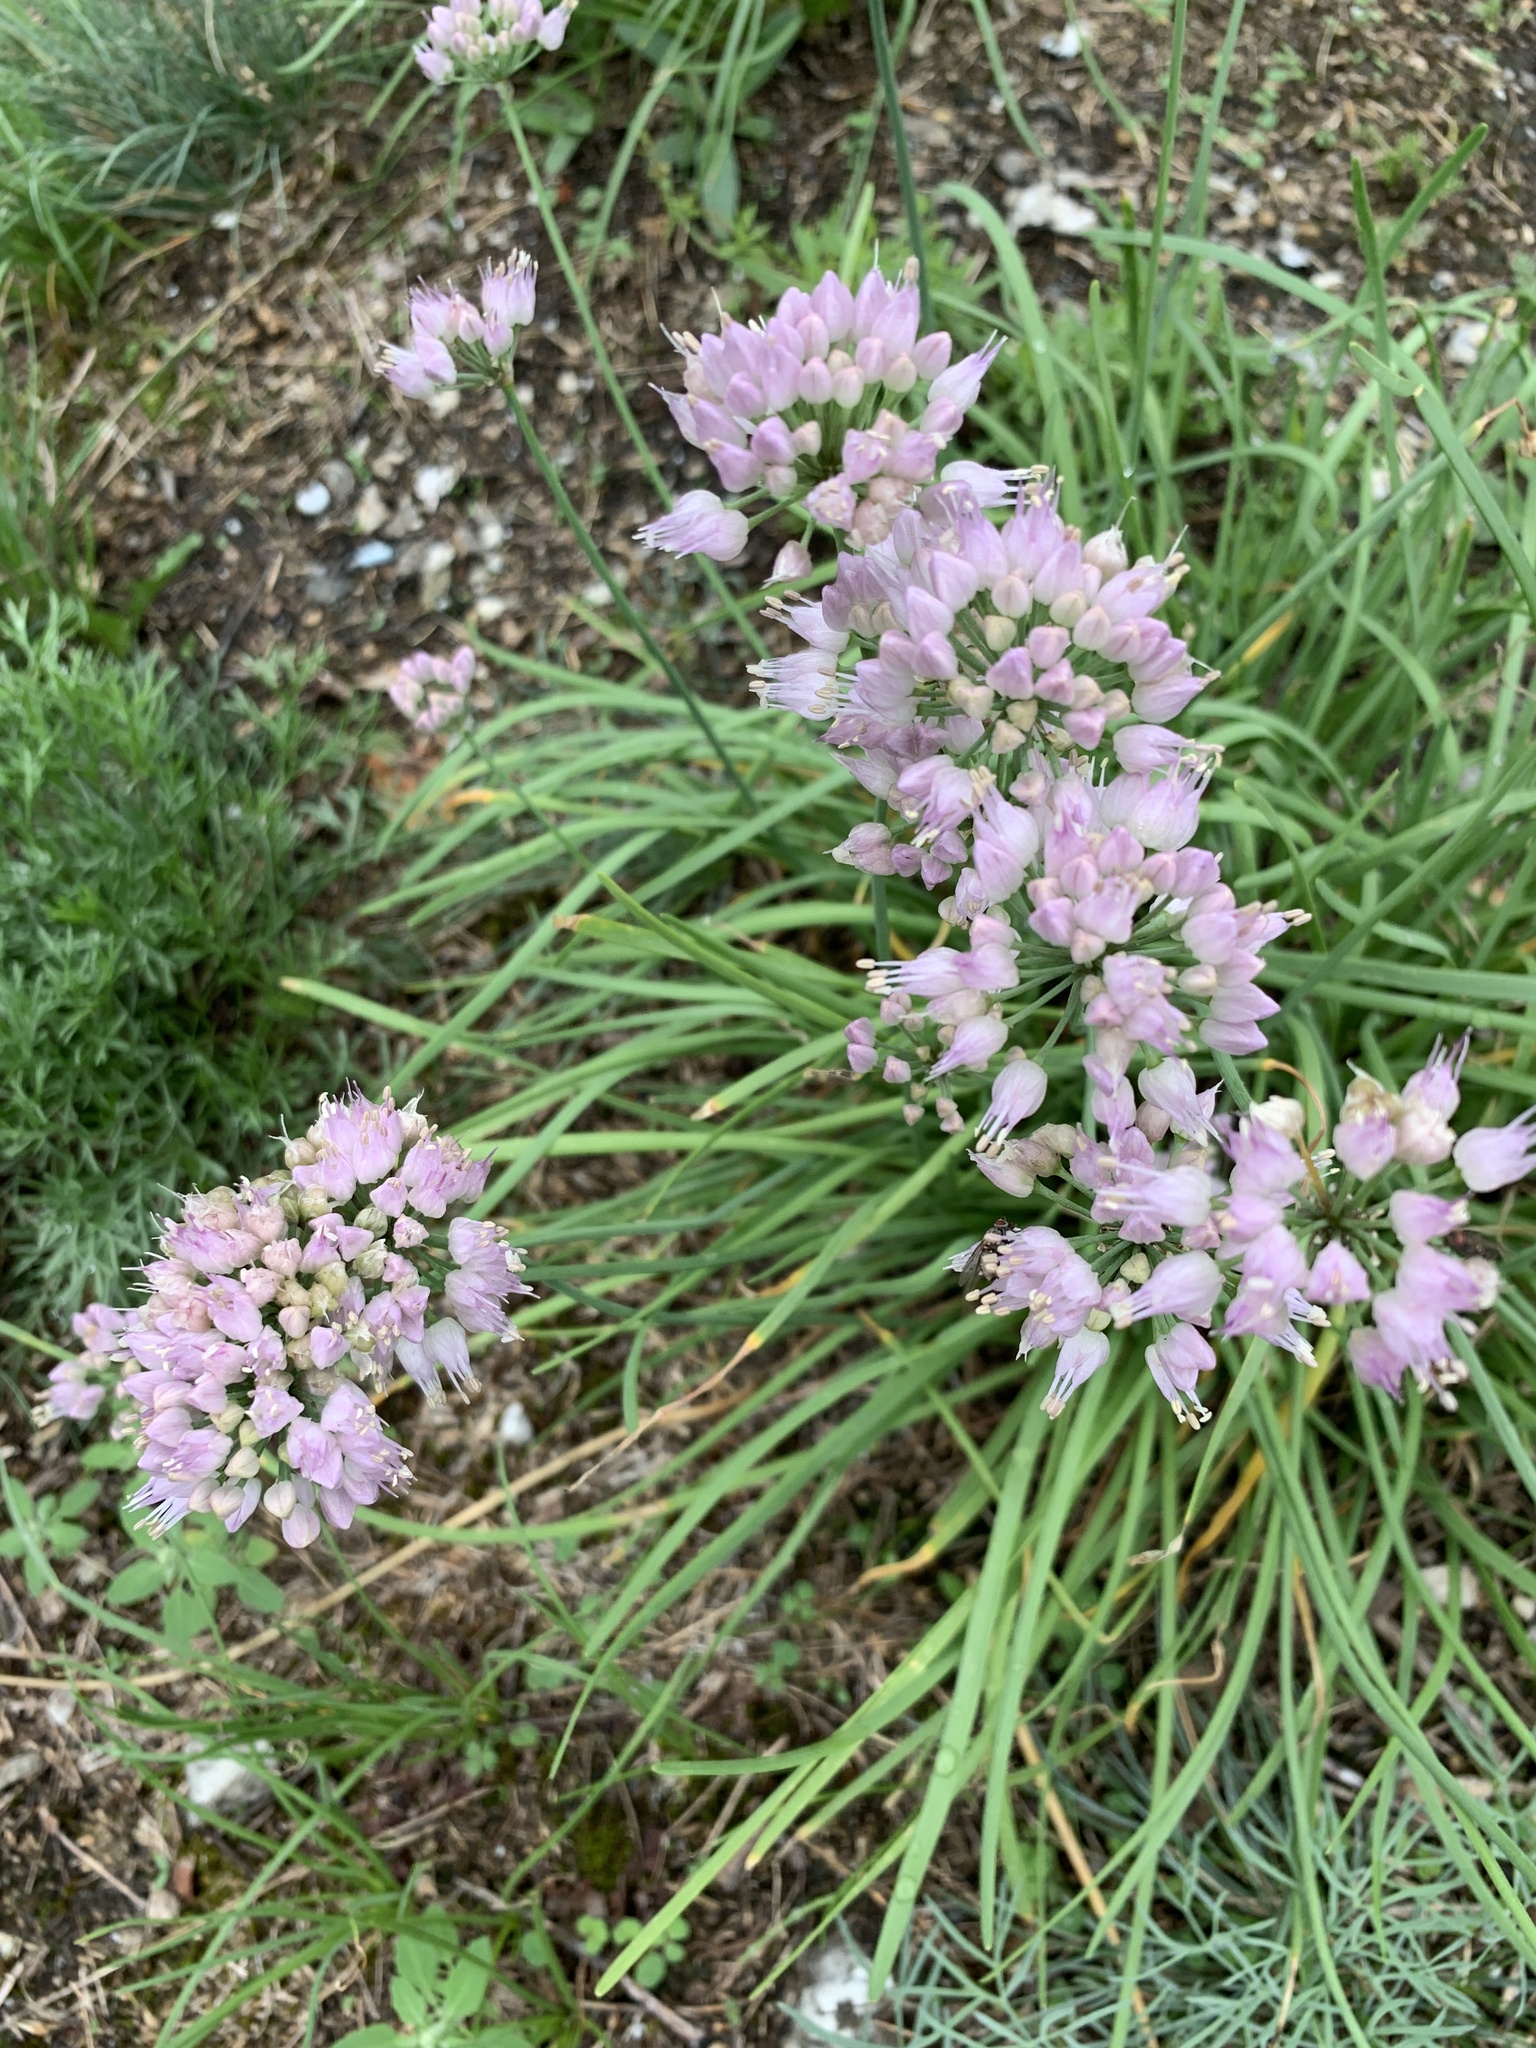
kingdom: Plantae
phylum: Tracheophyta
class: Liliopsida
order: Asparagales
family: Amaryllidaceae
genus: Allium
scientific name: Allium lusitanicum
